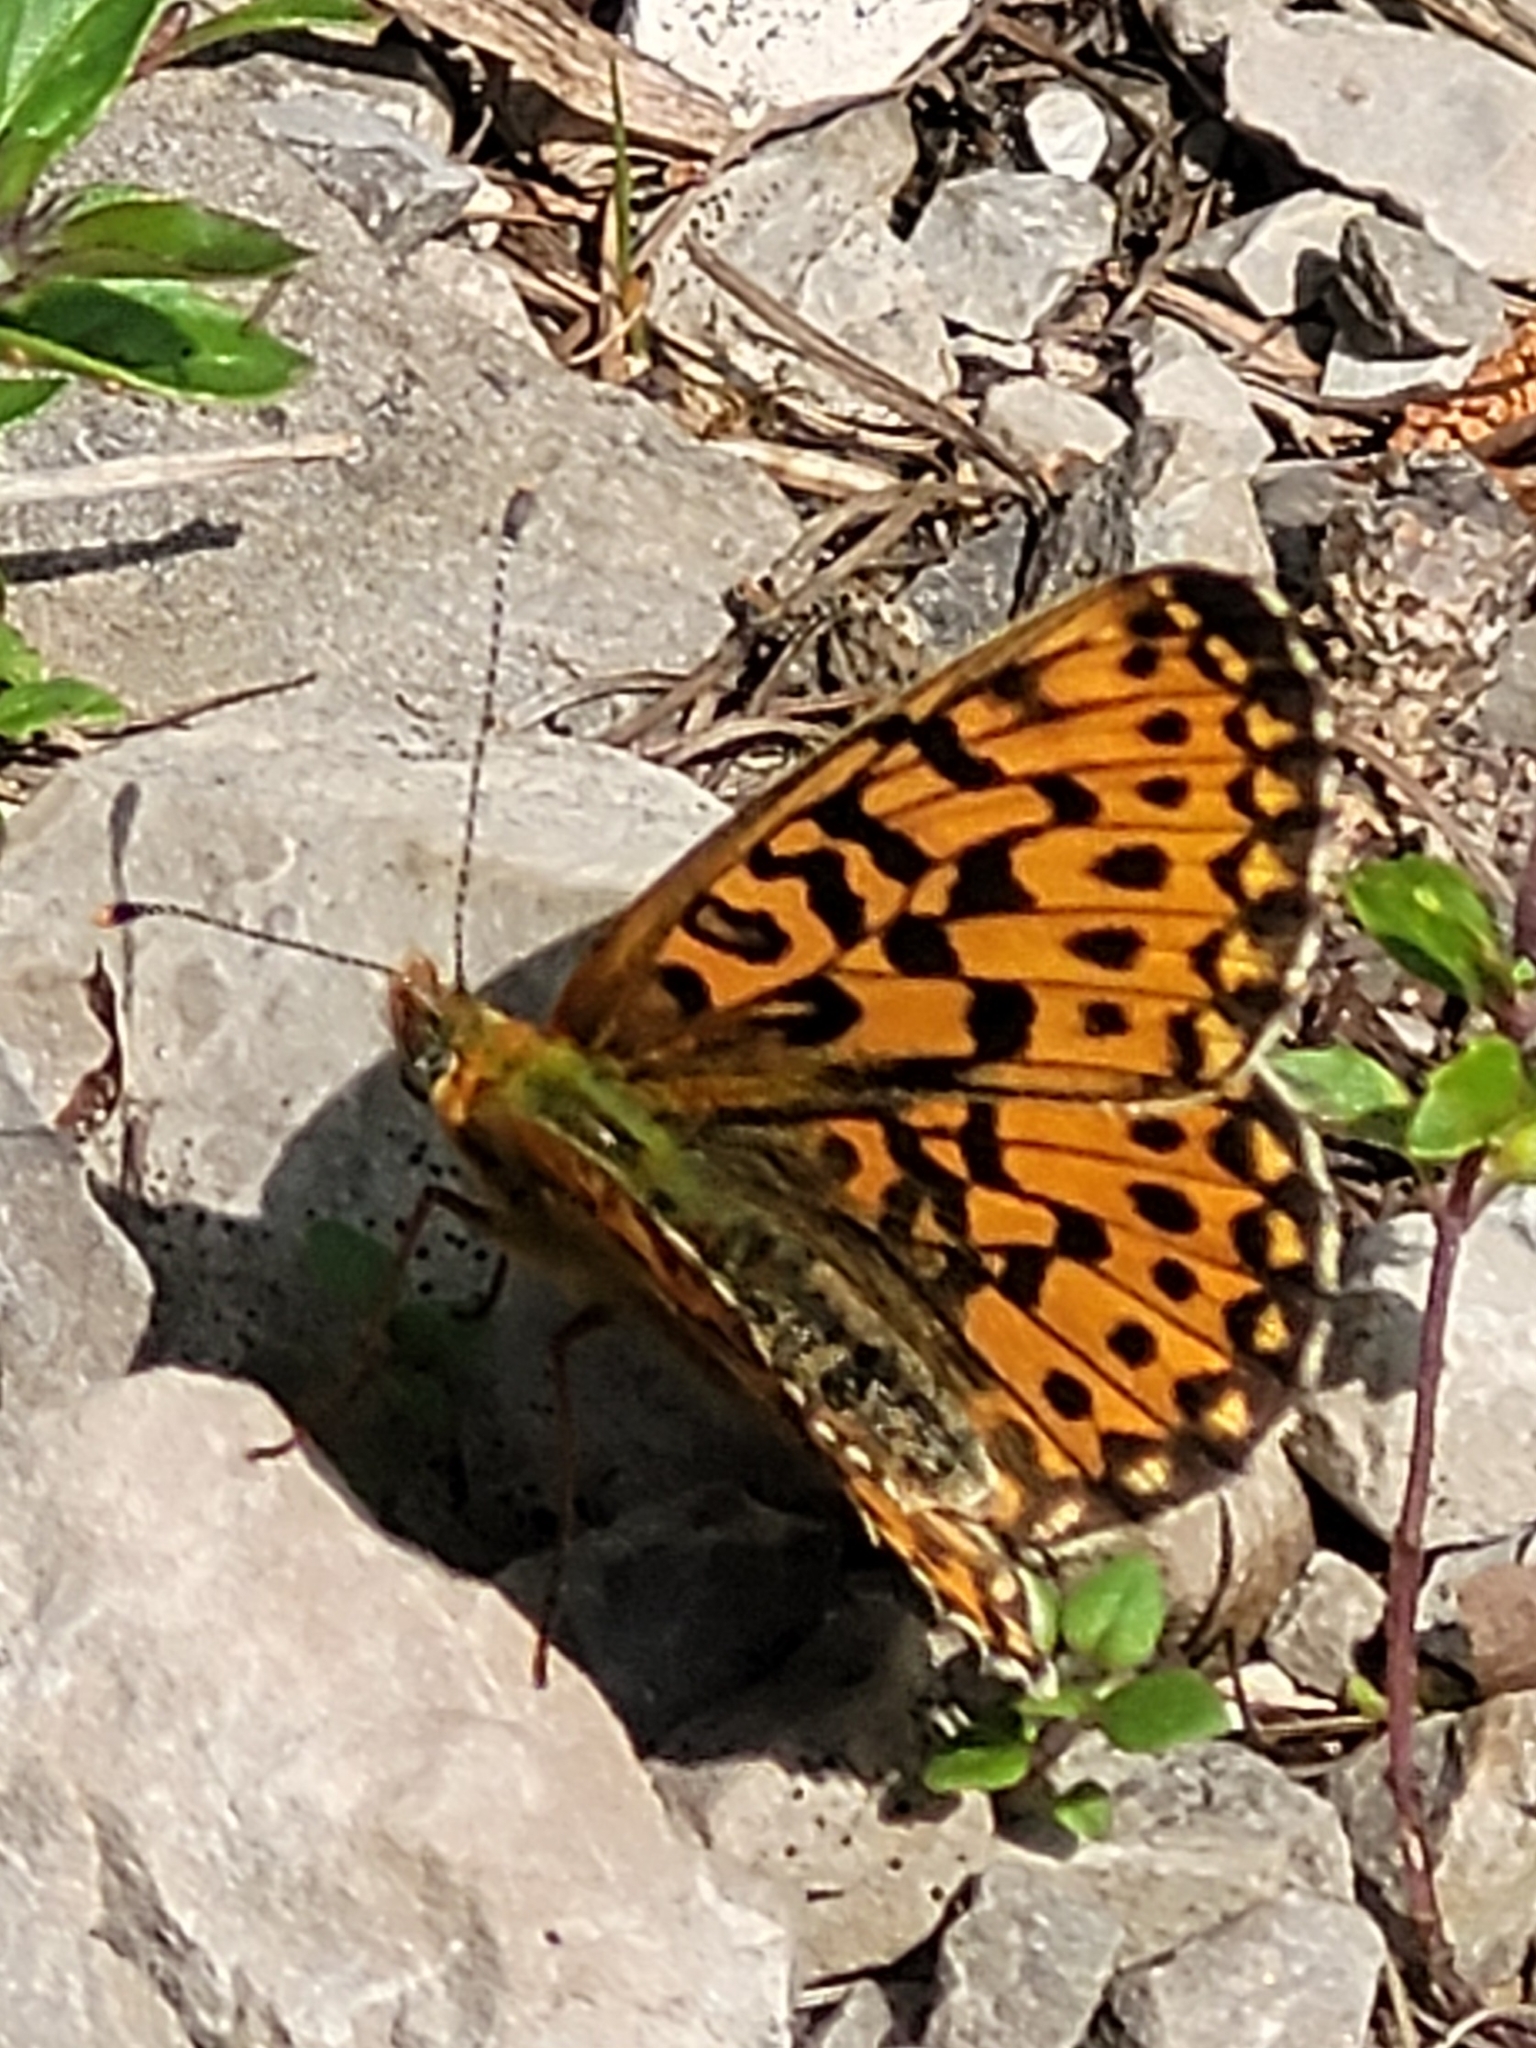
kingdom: Animalia
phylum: Arthropoda
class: Insecta
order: Lepidoptera
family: Nymphalidae
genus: Clossiana
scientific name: Clossiana euphrosyne
